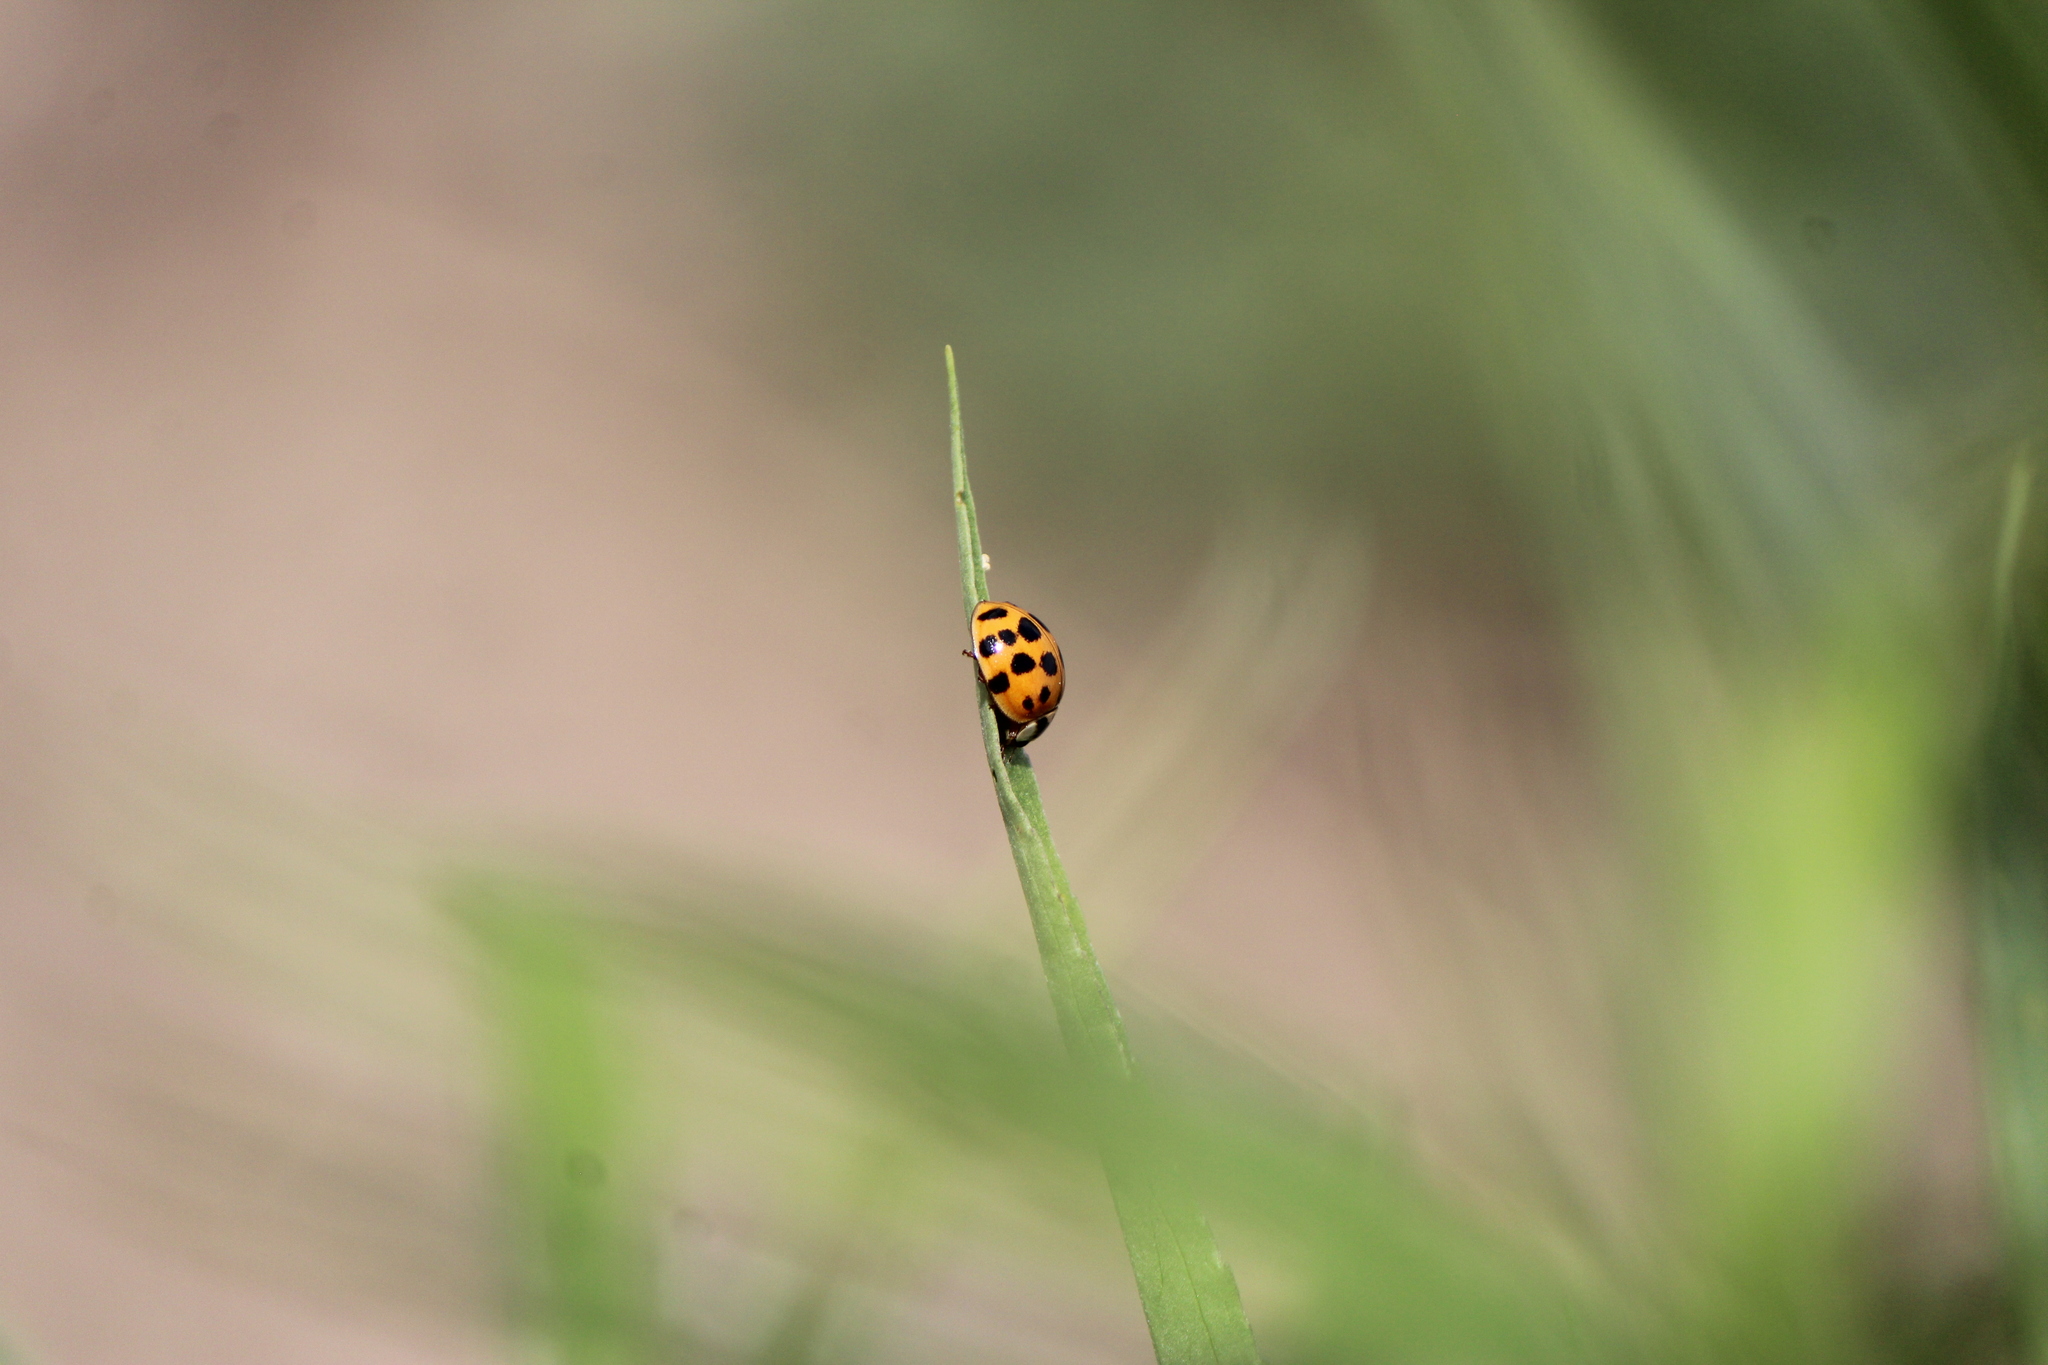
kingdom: Animalia
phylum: Arthropoda
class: Insecta
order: Coleoptera
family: Coccinellidae
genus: Harmonia
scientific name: Harmonia axyridis
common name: Harlequin ladybird
